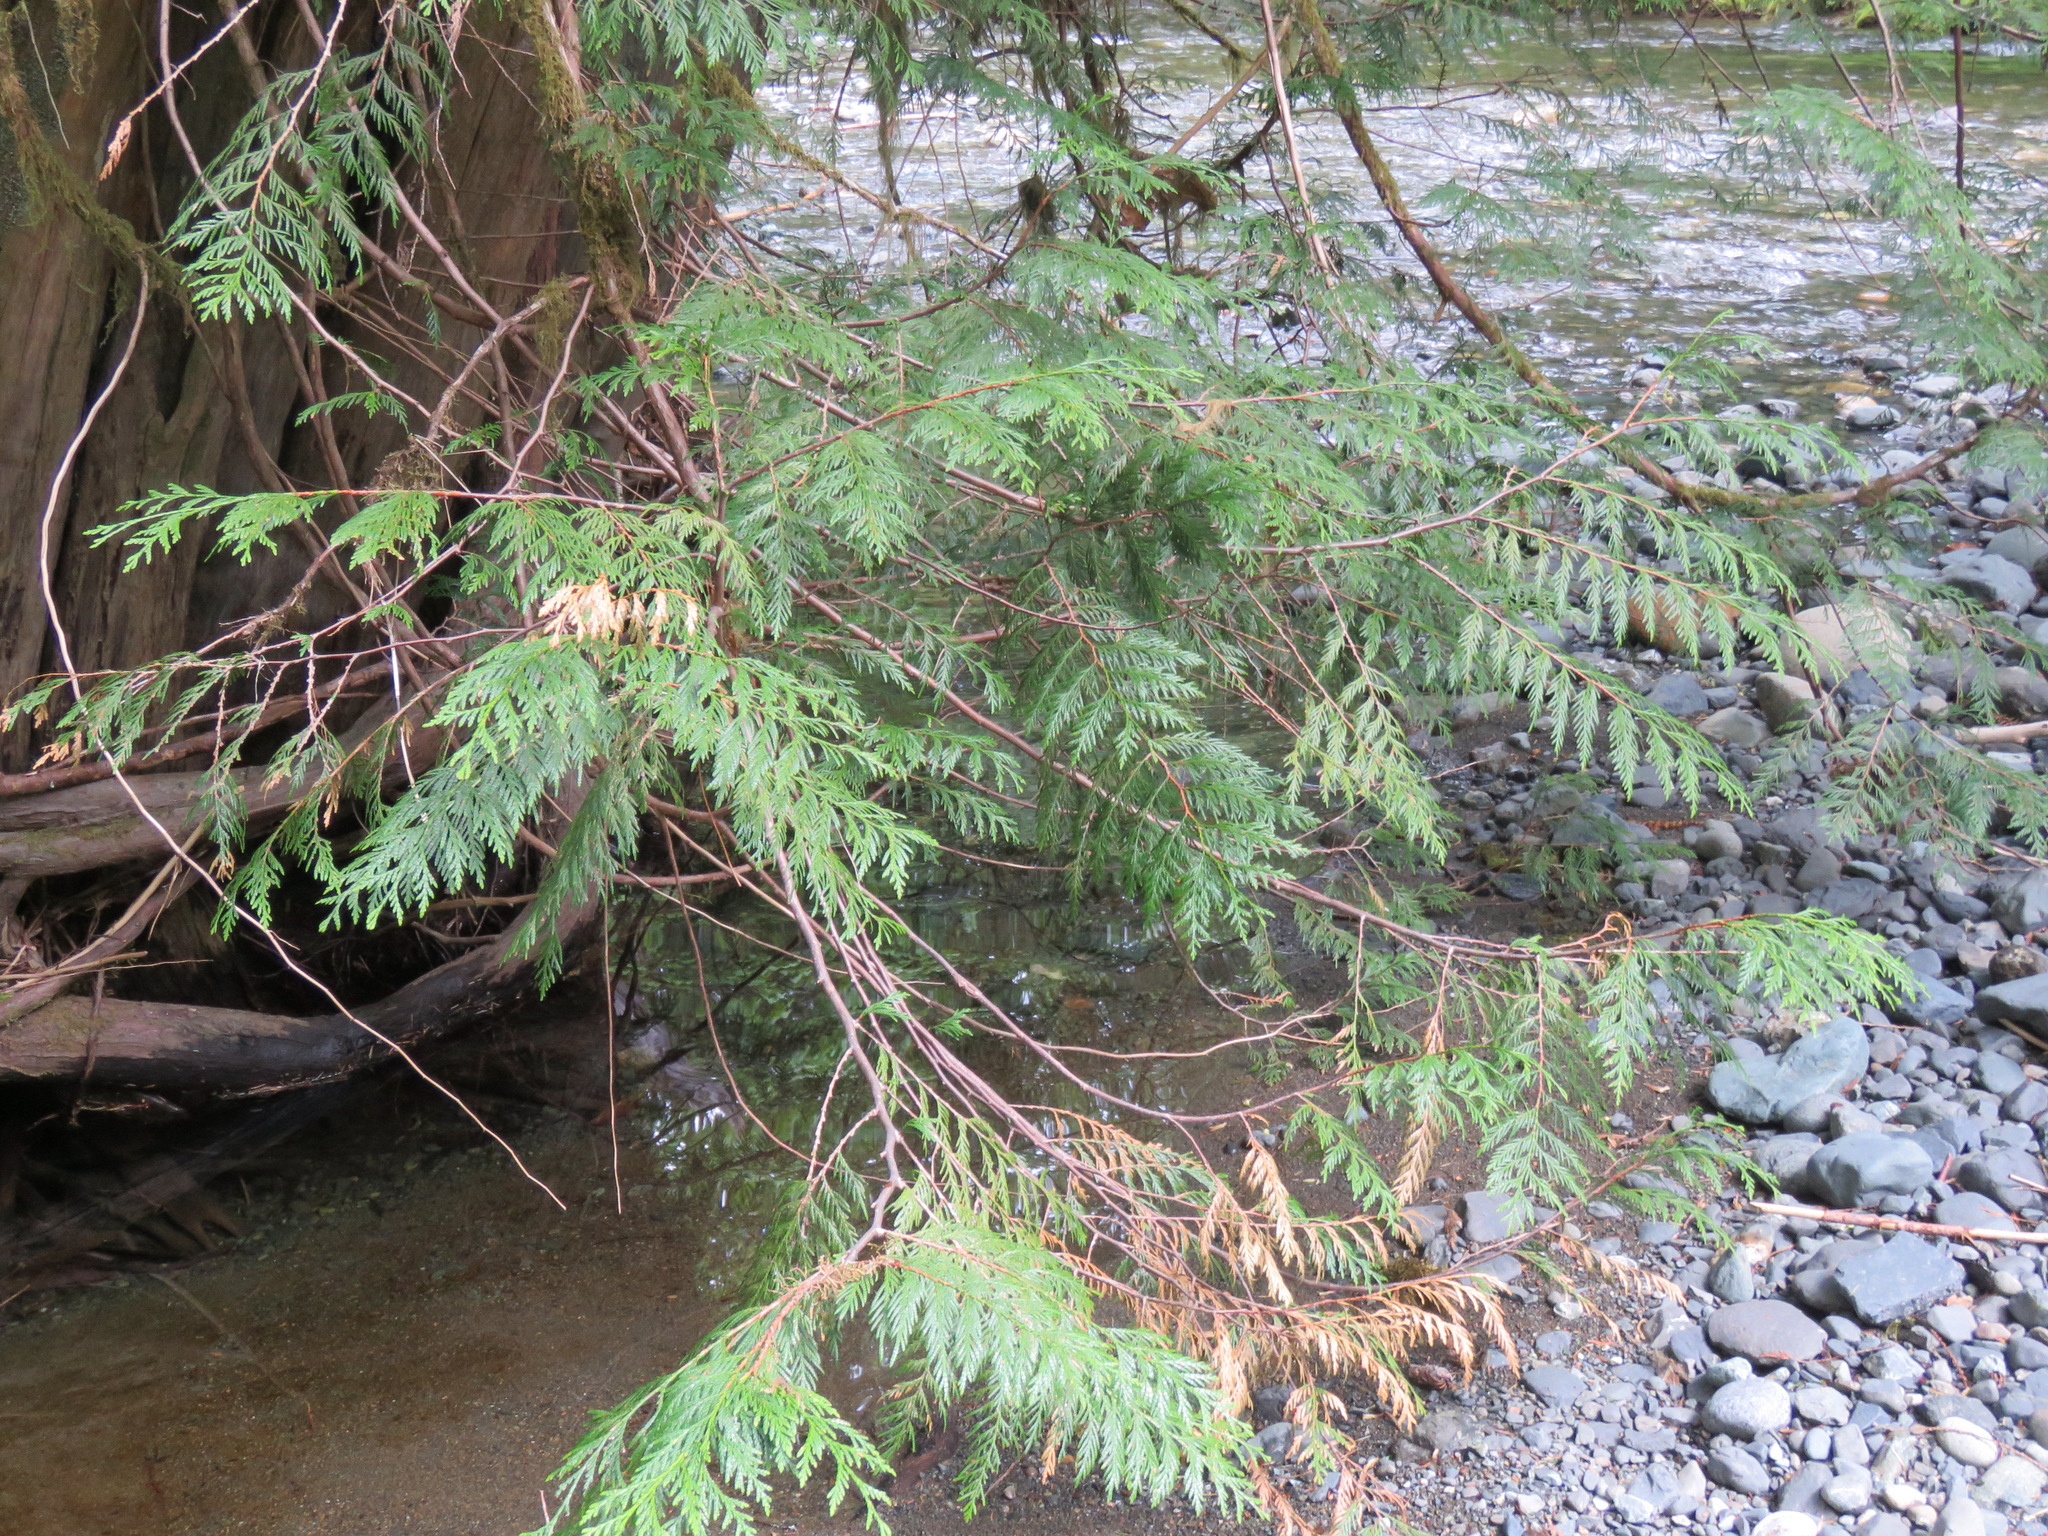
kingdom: Plantae
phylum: Tracheophyta
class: Pinopsida
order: Pinales
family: Cupressaceae
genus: Thuja
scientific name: Thuja plicata
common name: Western red-cedar
